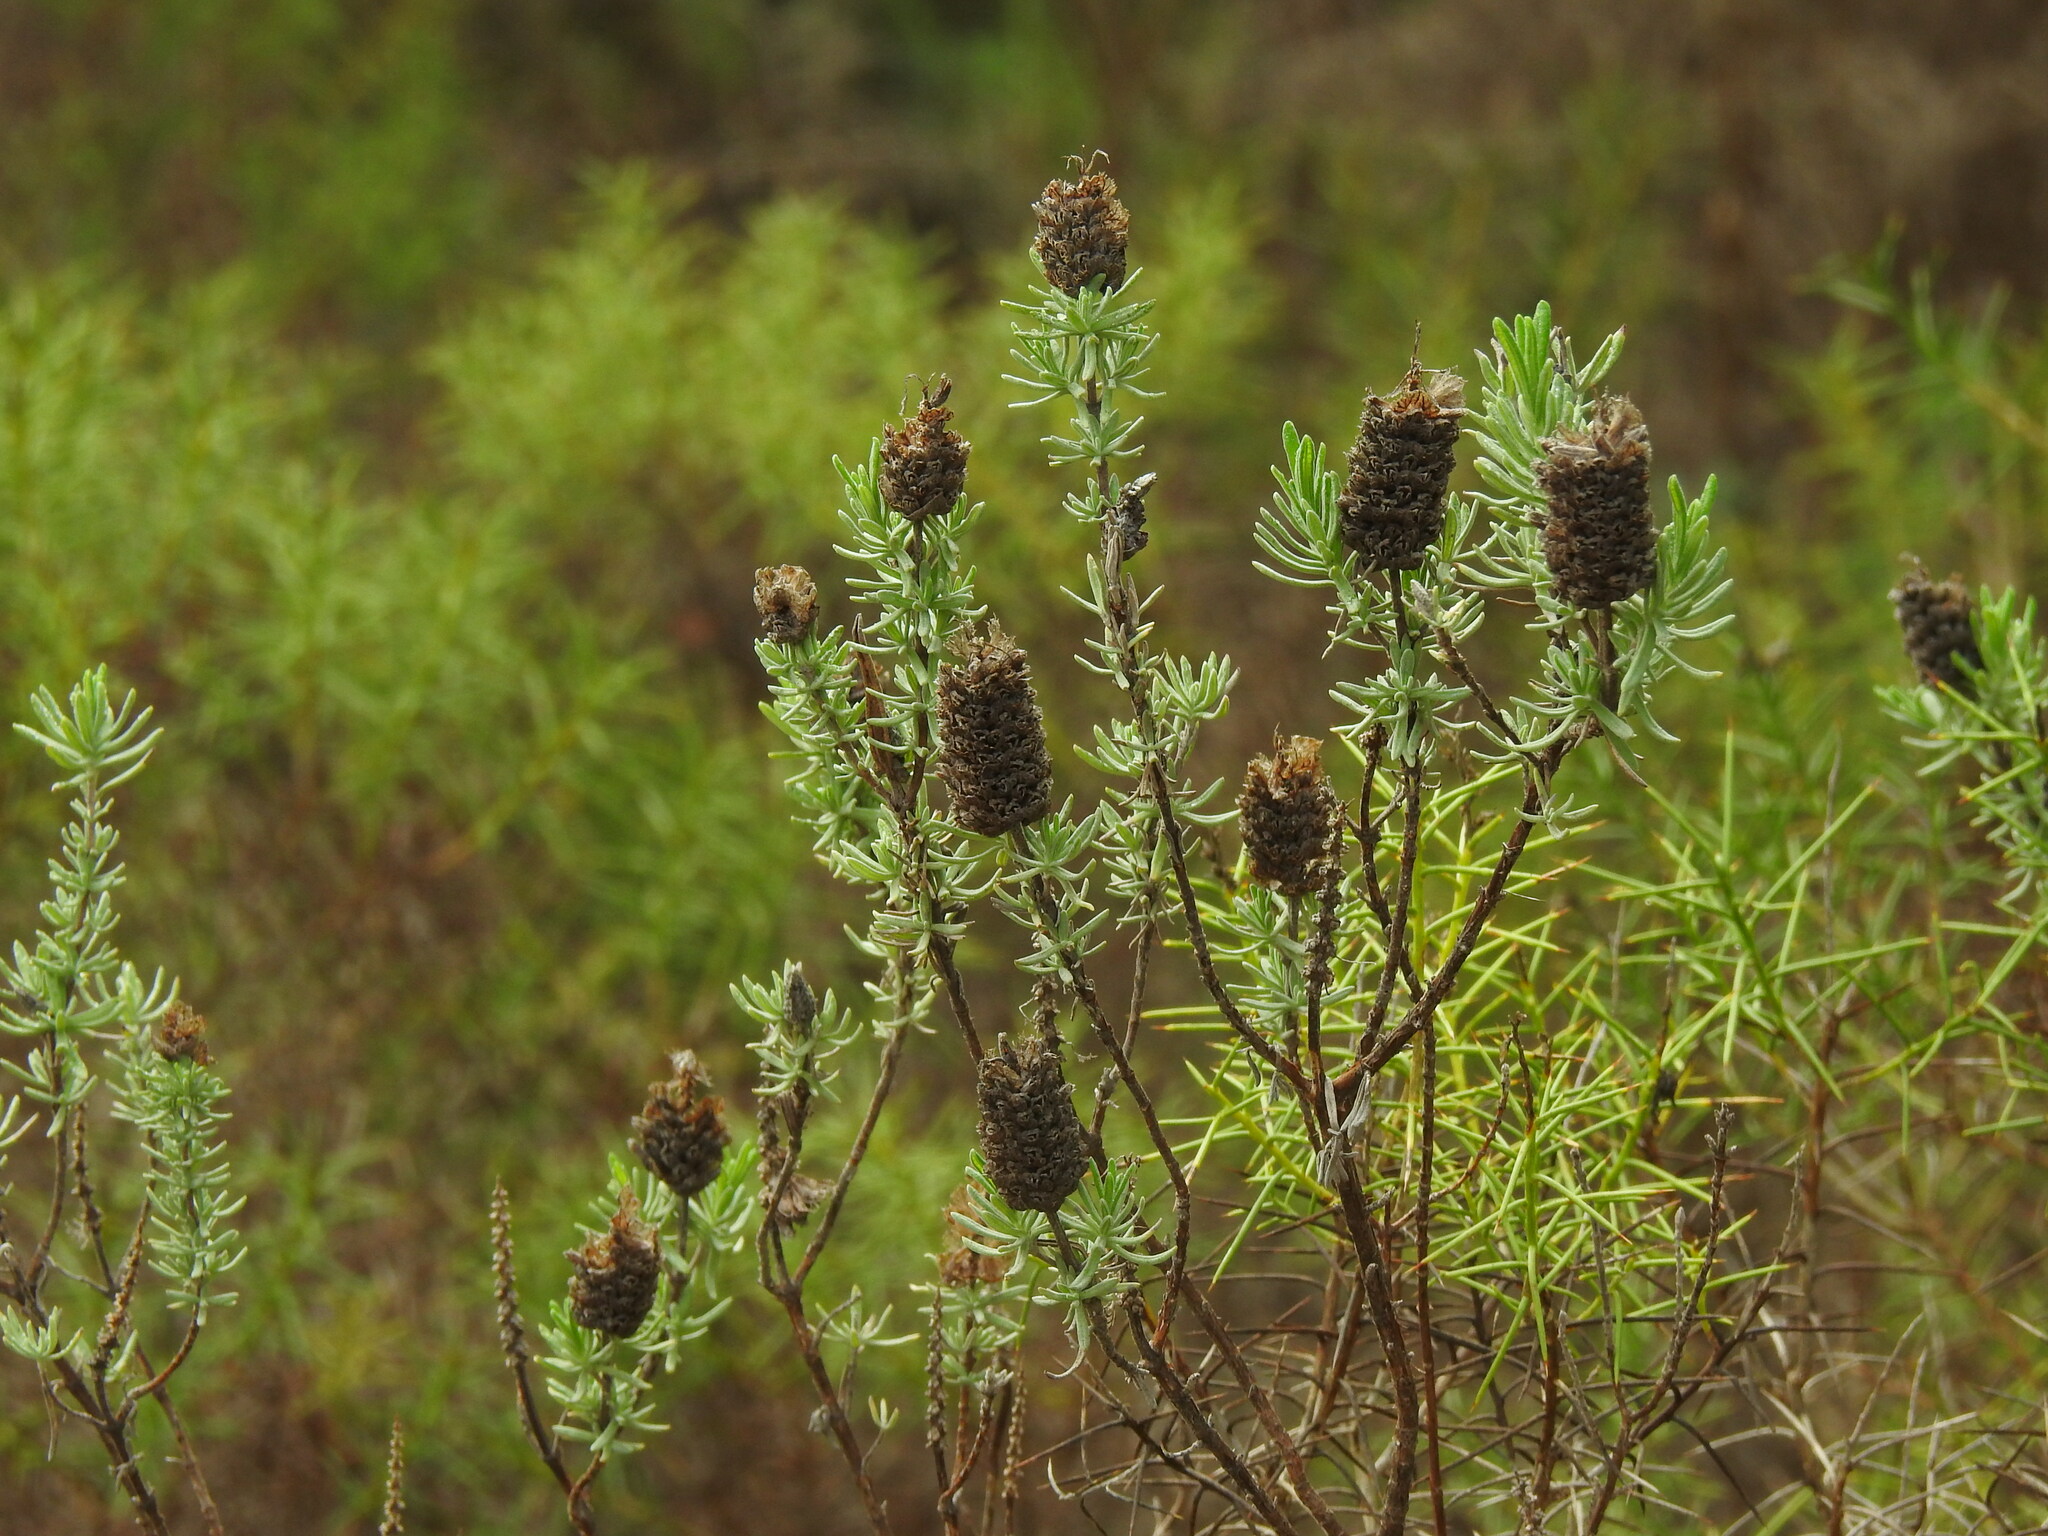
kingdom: Plantae
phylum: Tracheophyta
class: Magnoliopsida
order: Lamiales
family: Lamiaceae
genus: Lavandula
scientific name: Lavandula stoechas
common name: French lavender
